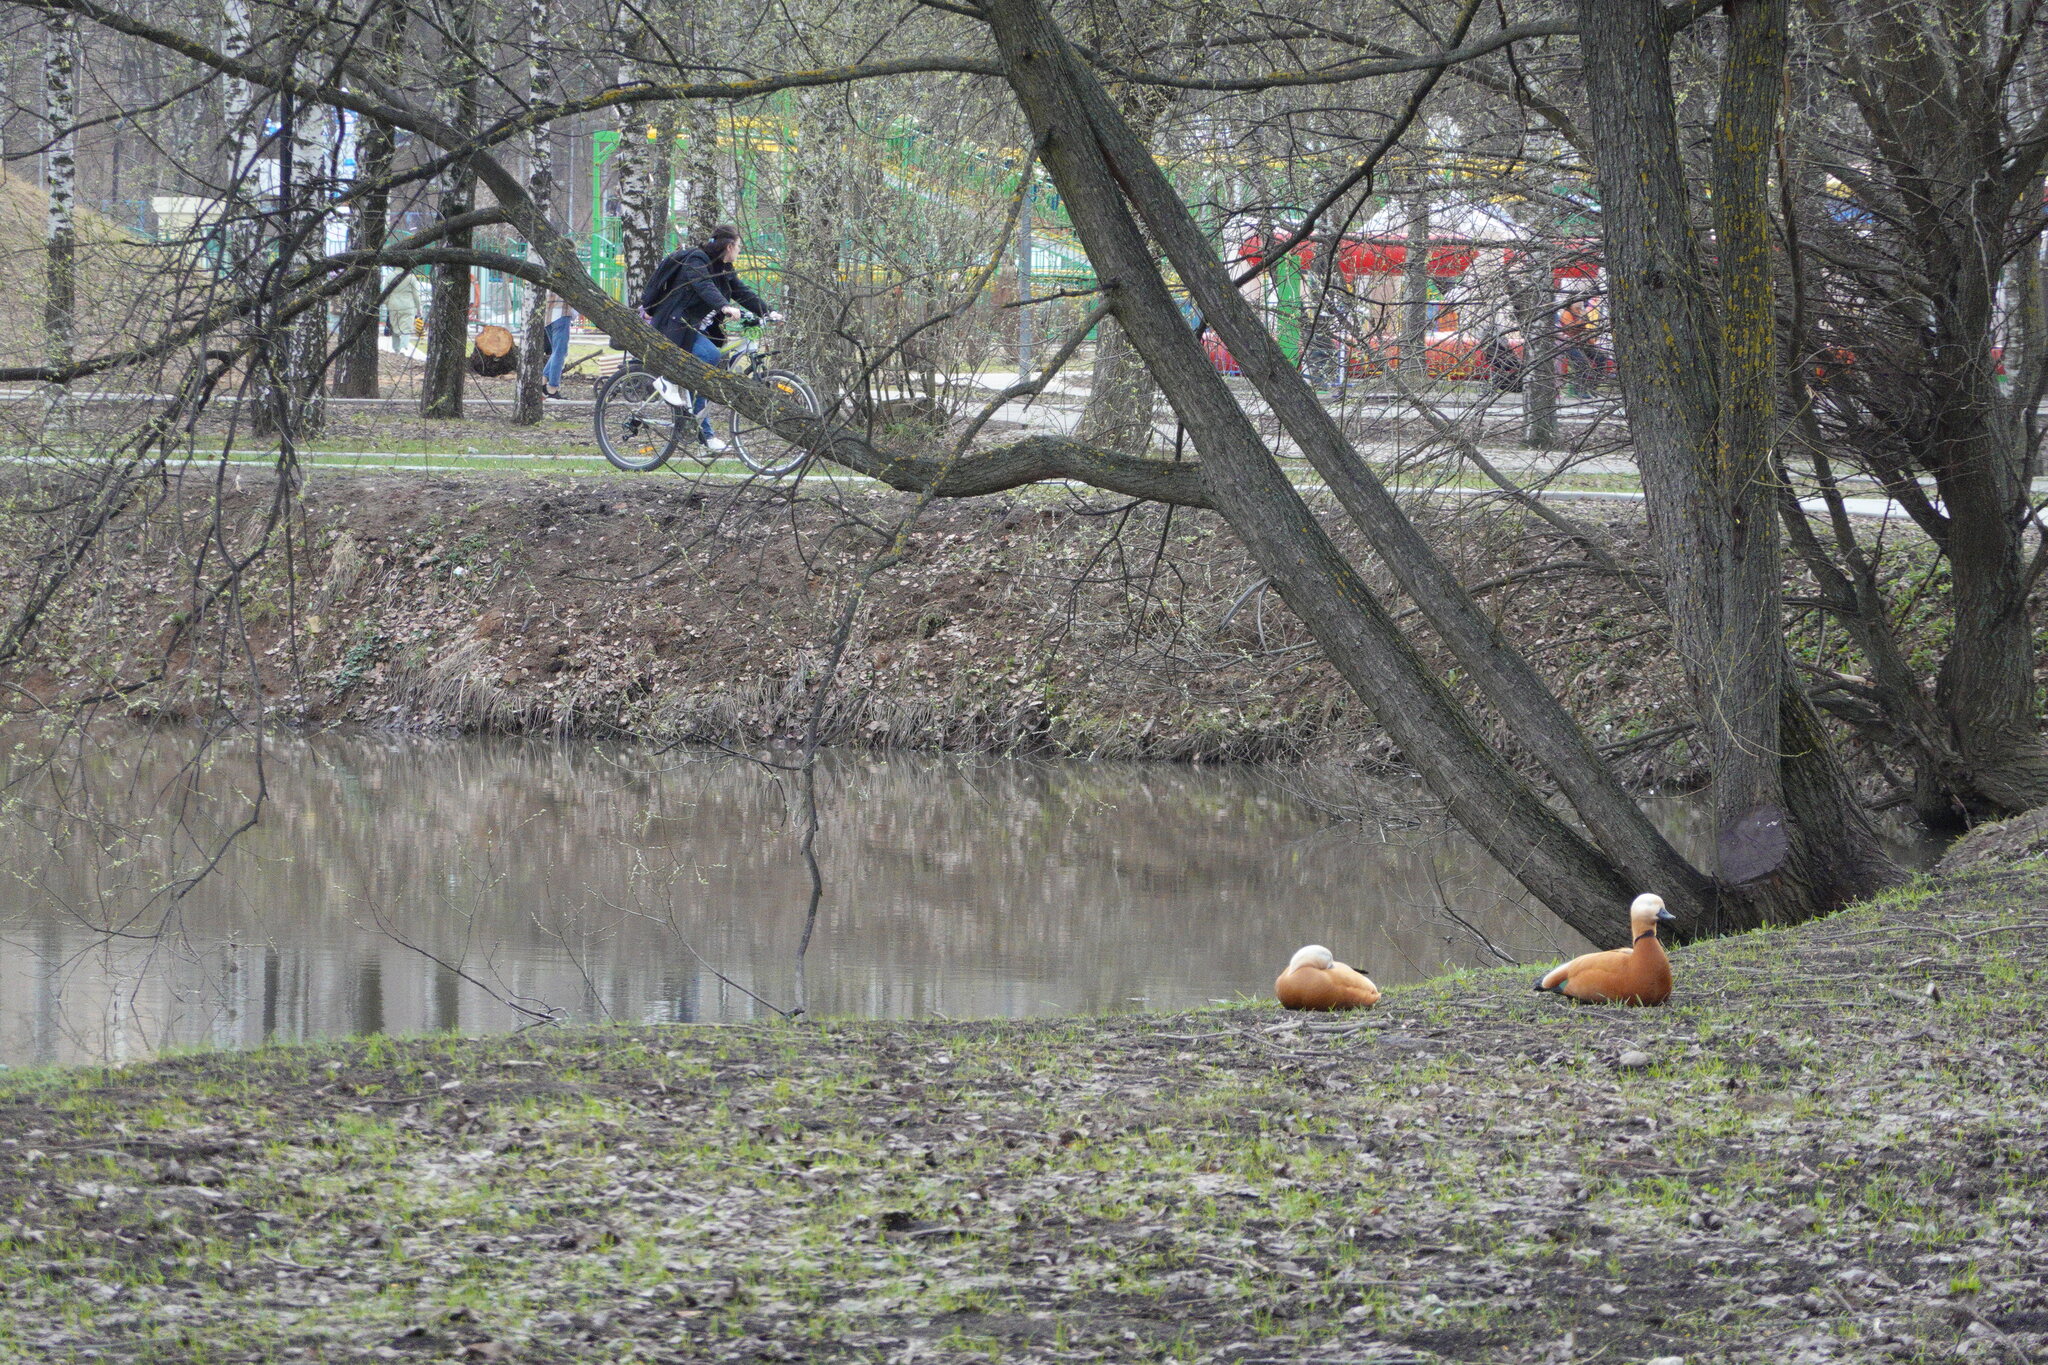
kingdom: Animalia
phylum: Chordata
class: Aves
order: Anseriformes
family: Anatidae
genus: Tadorna
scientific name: Tadorna ferruginea
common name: Ruddy shelduck
